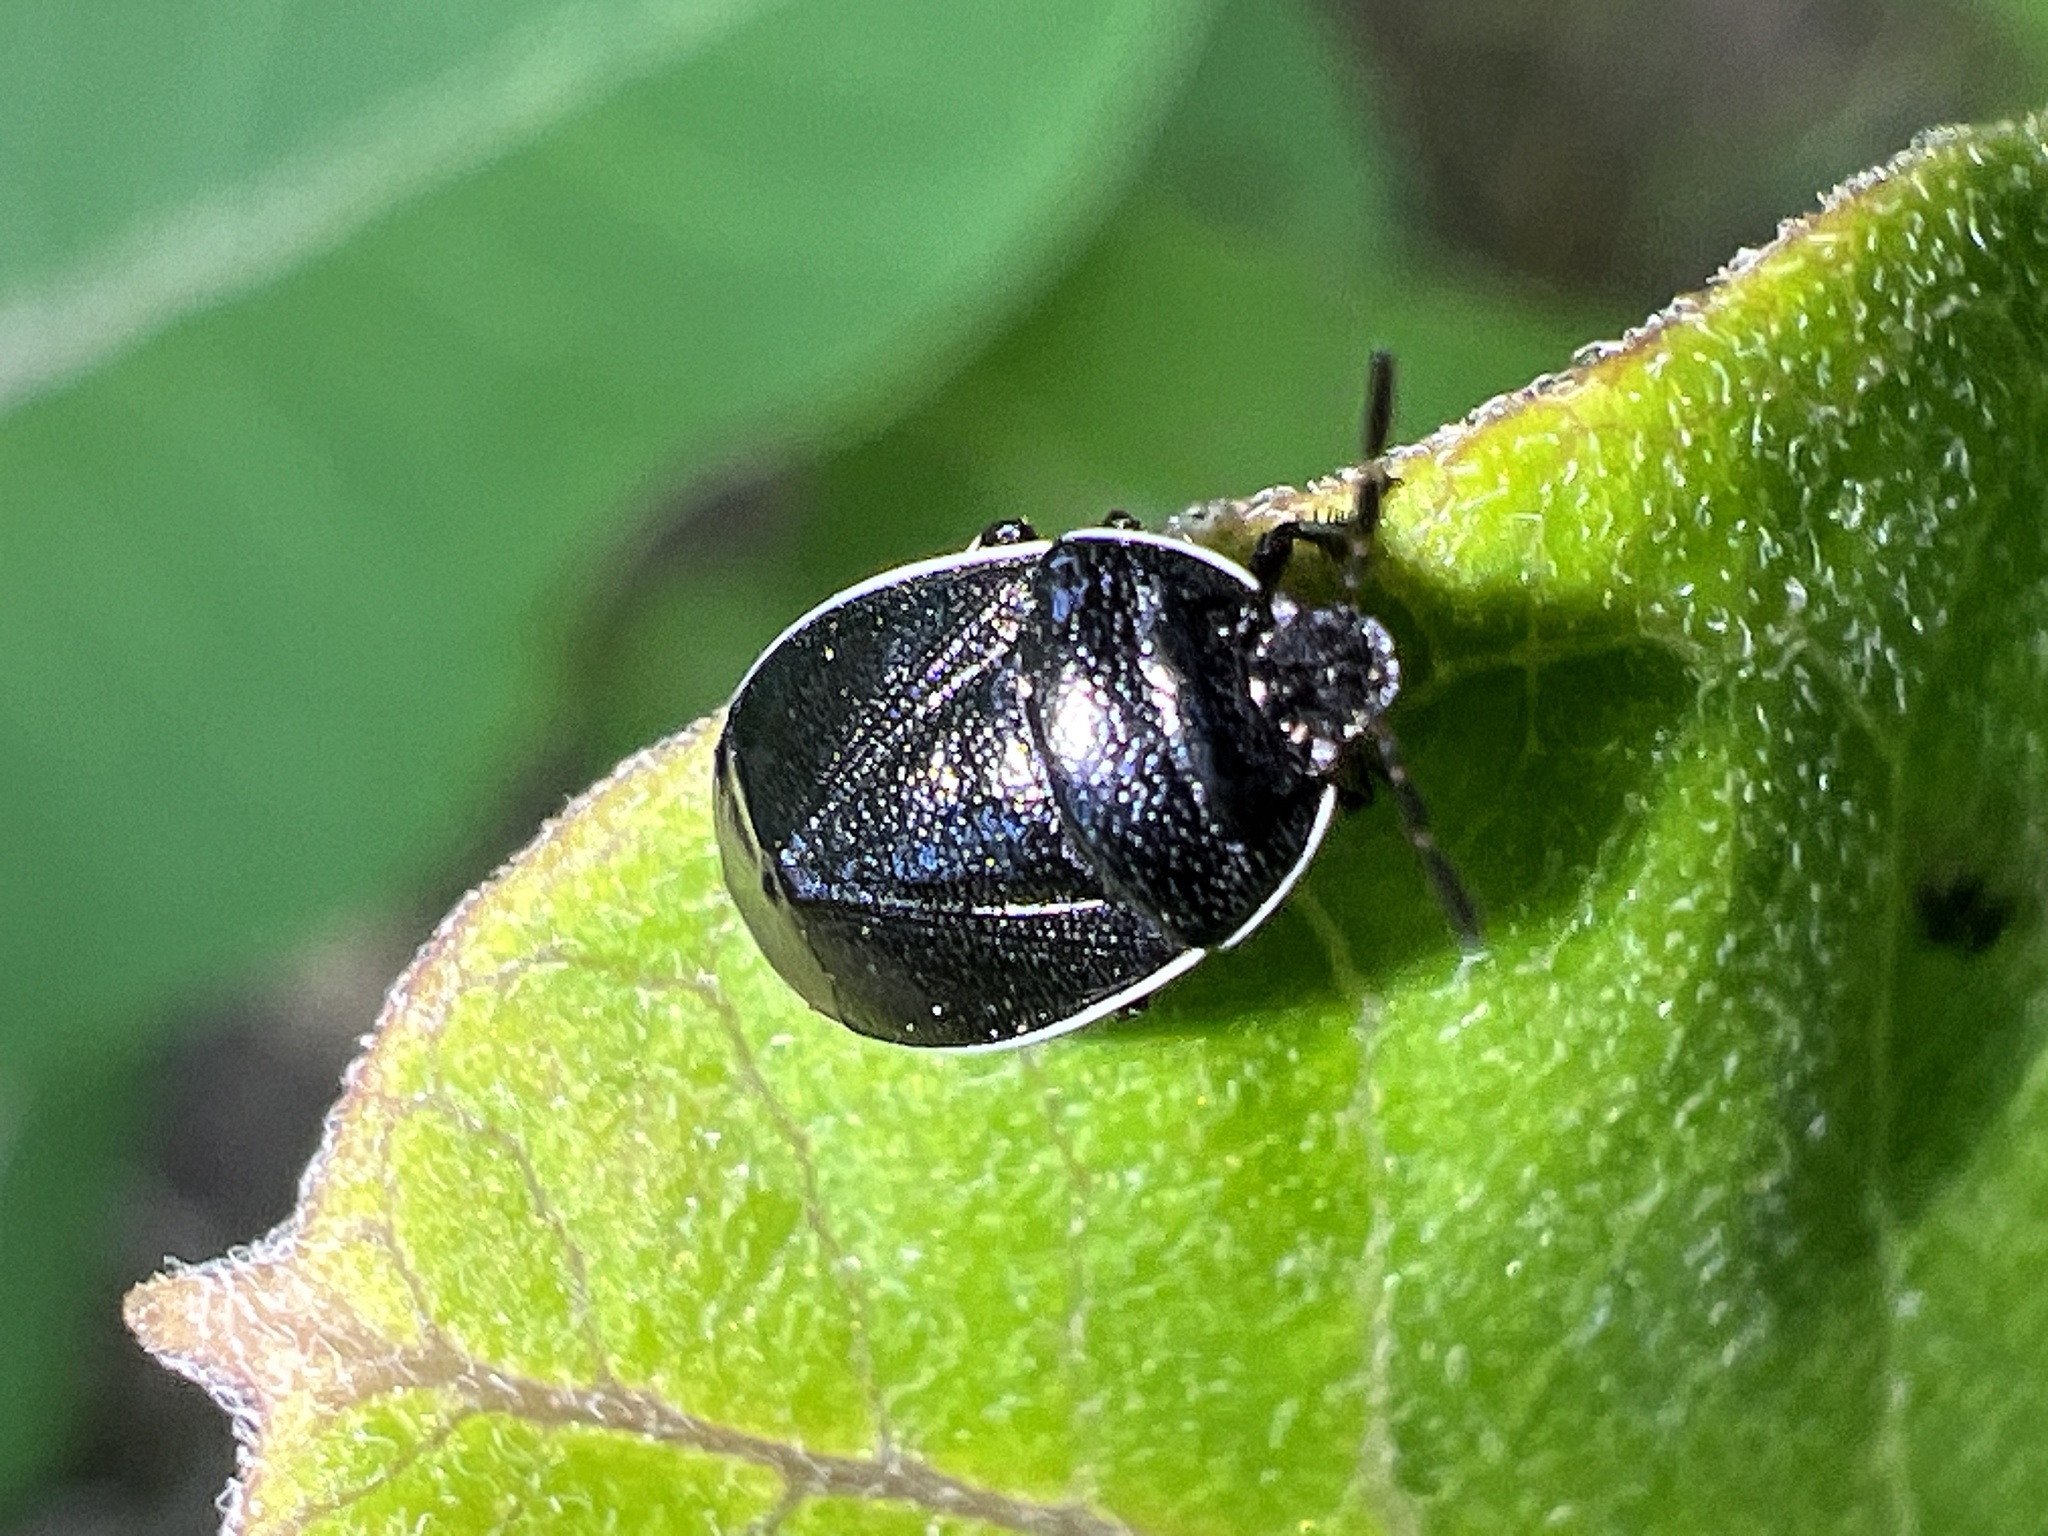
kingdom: Animalia
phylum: Arthropoda
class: Insecta
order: Hemiptera
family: Cydnidae
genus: Sehirus
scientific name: Sehirus cinctus
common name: White-margined burrower bug
